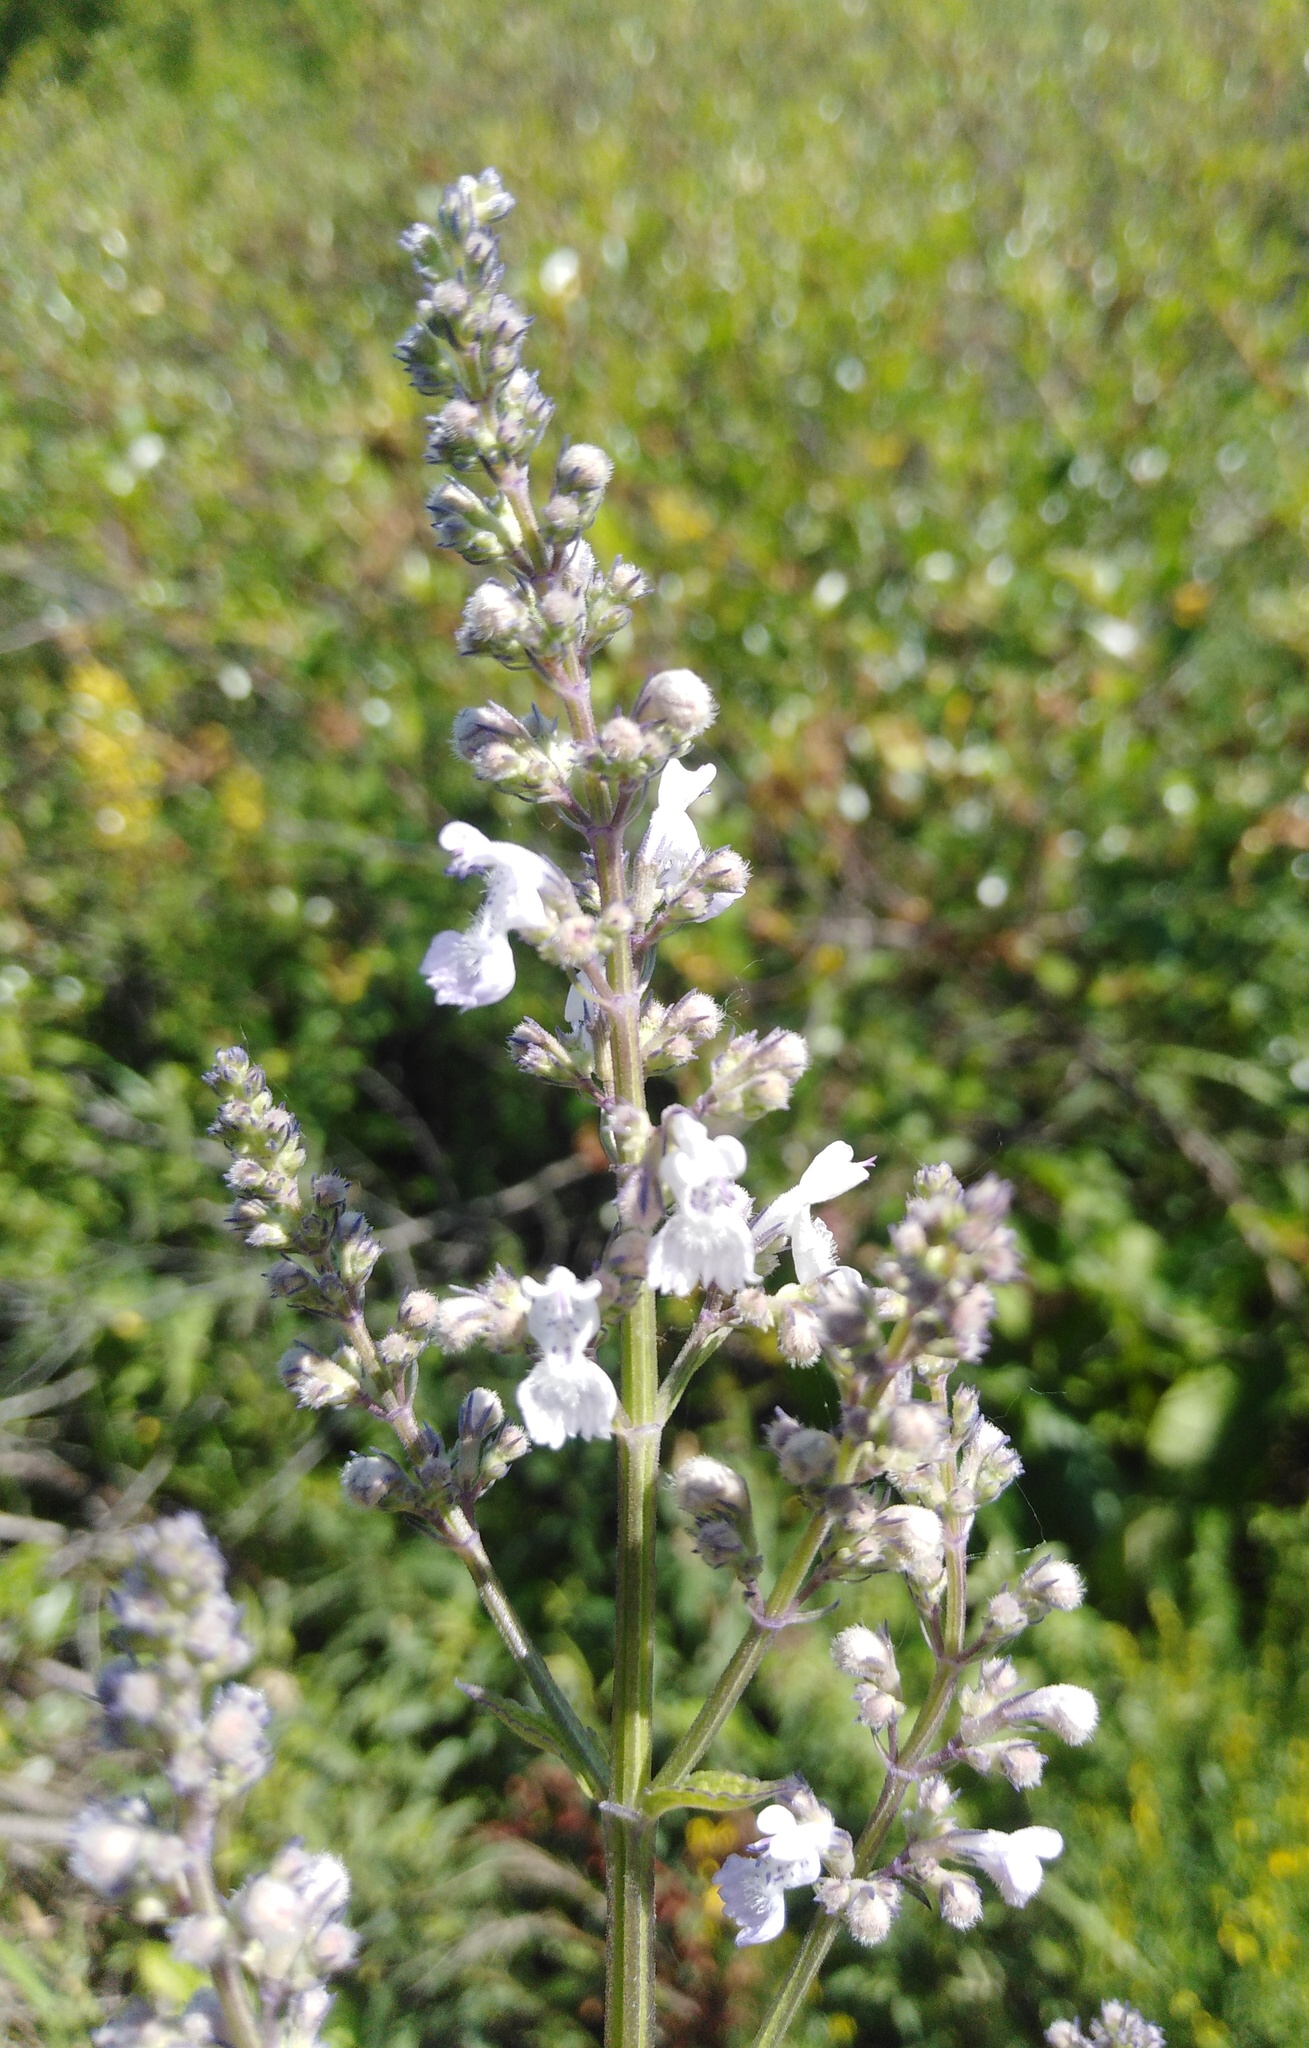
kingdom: Plantae
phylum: Tracheophyta
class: Magnoliopsida
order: Lamiales
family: Lamiaceae
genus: Nepeta
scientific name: Nepeta nuda
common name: Hairless catmint
